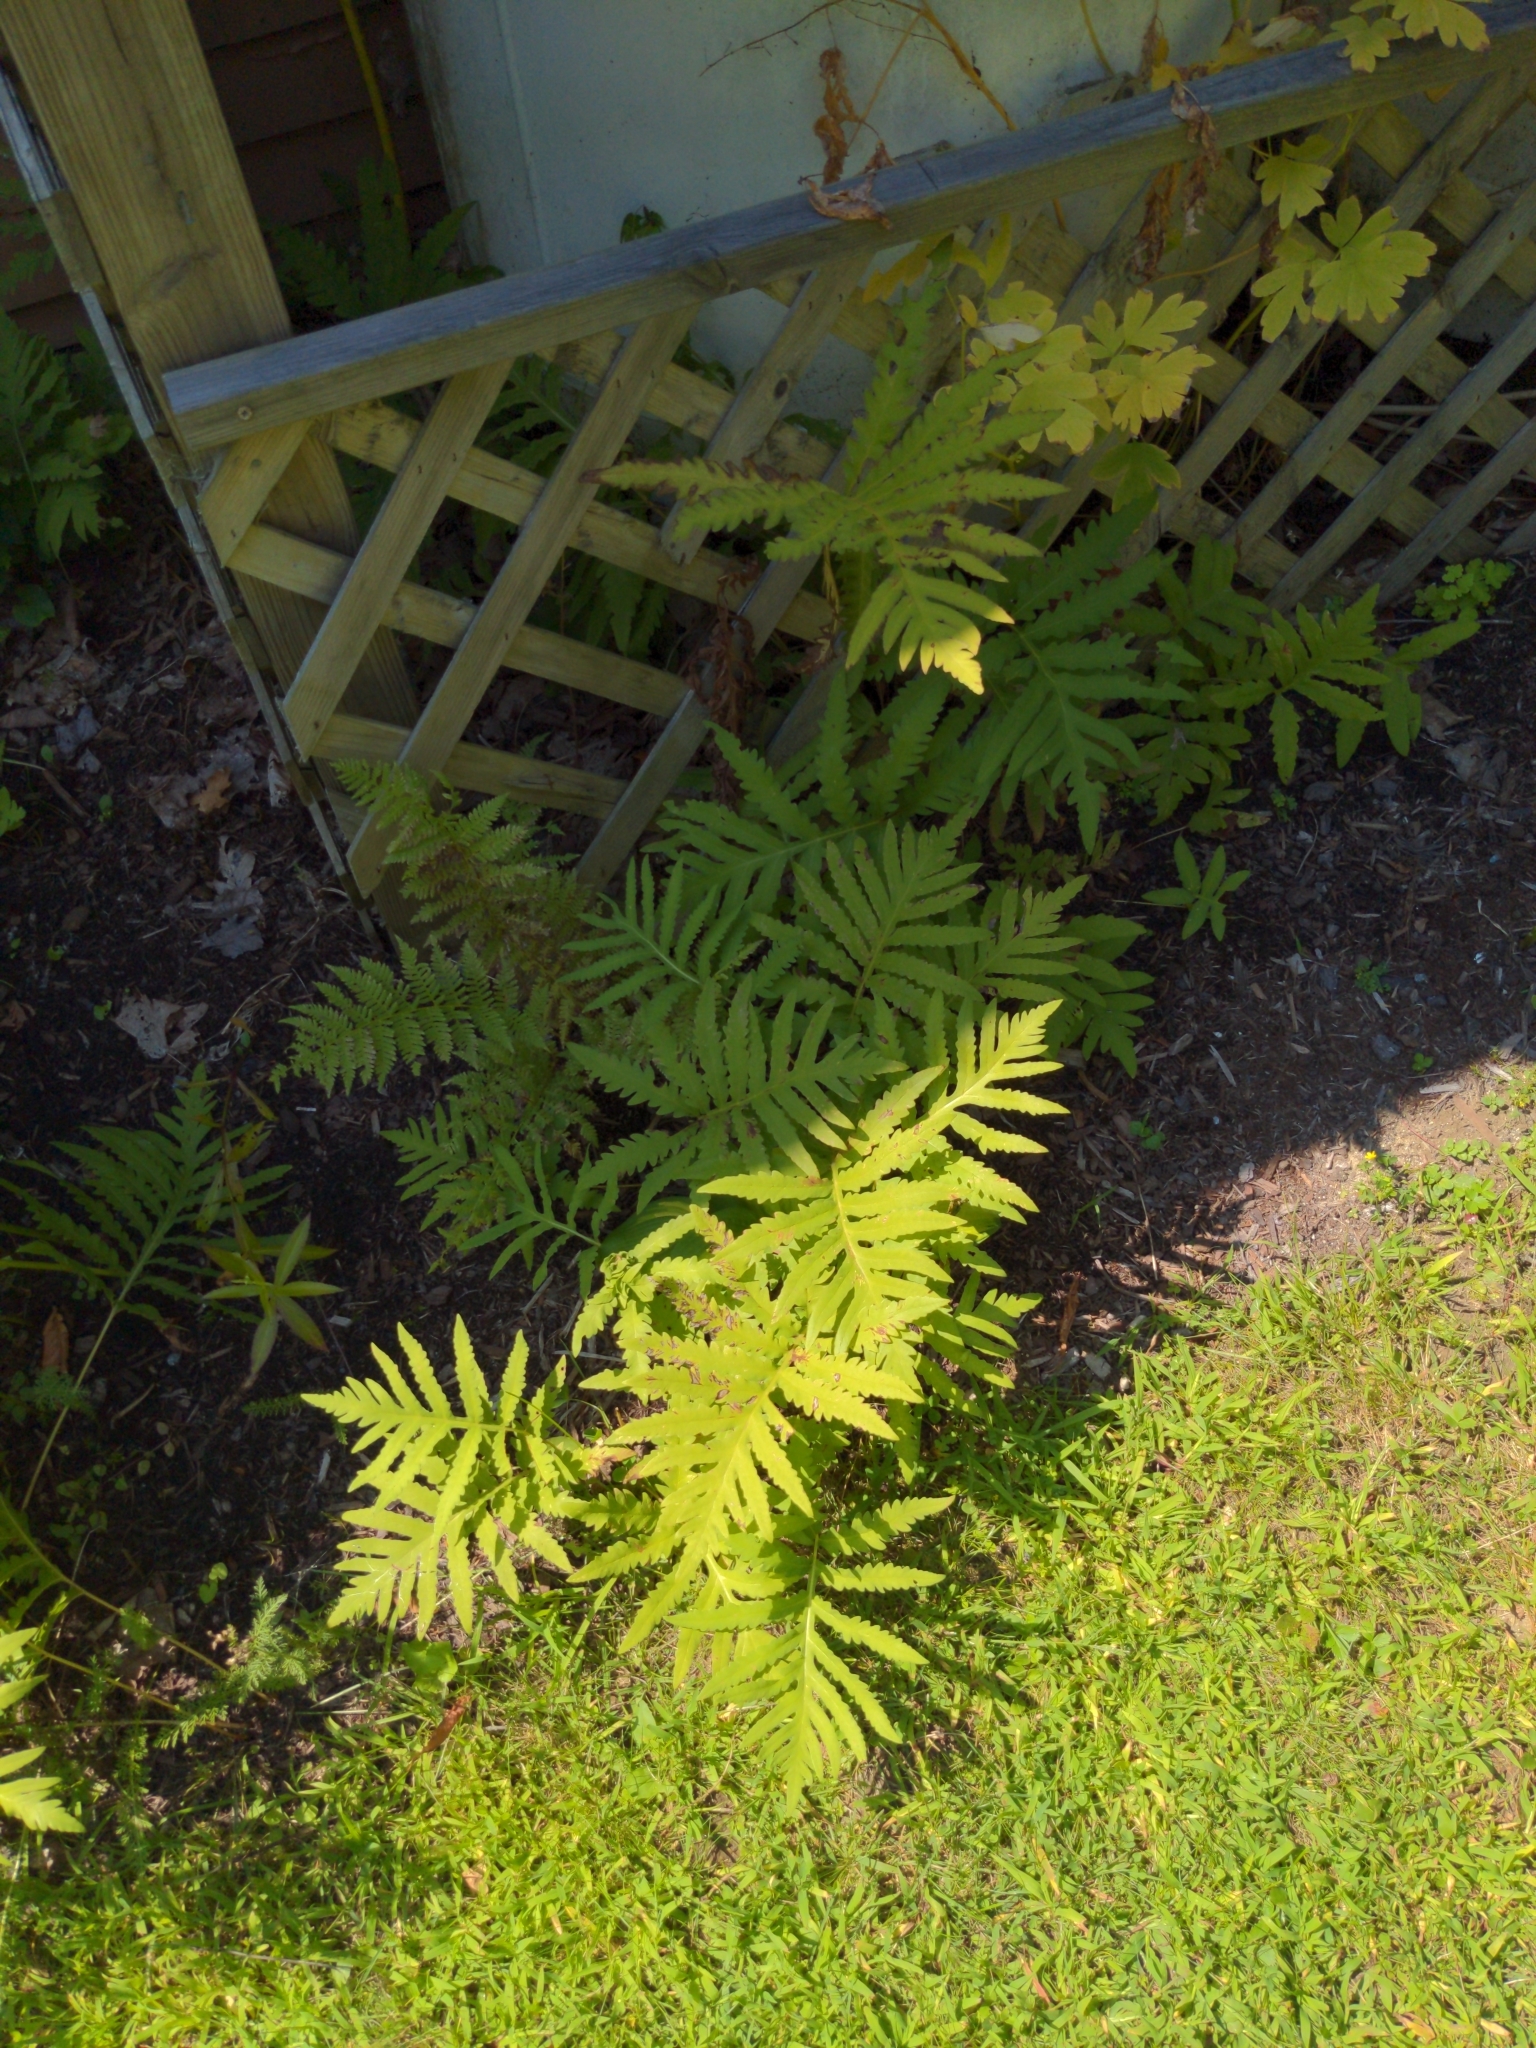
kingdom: Plantae
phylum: Tracheophyta
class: Polypodiopsida
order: Polypodiales
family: Onocleaceae
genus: Onoclea
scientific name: Onoclea sensibilis
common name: Sensitive fern
